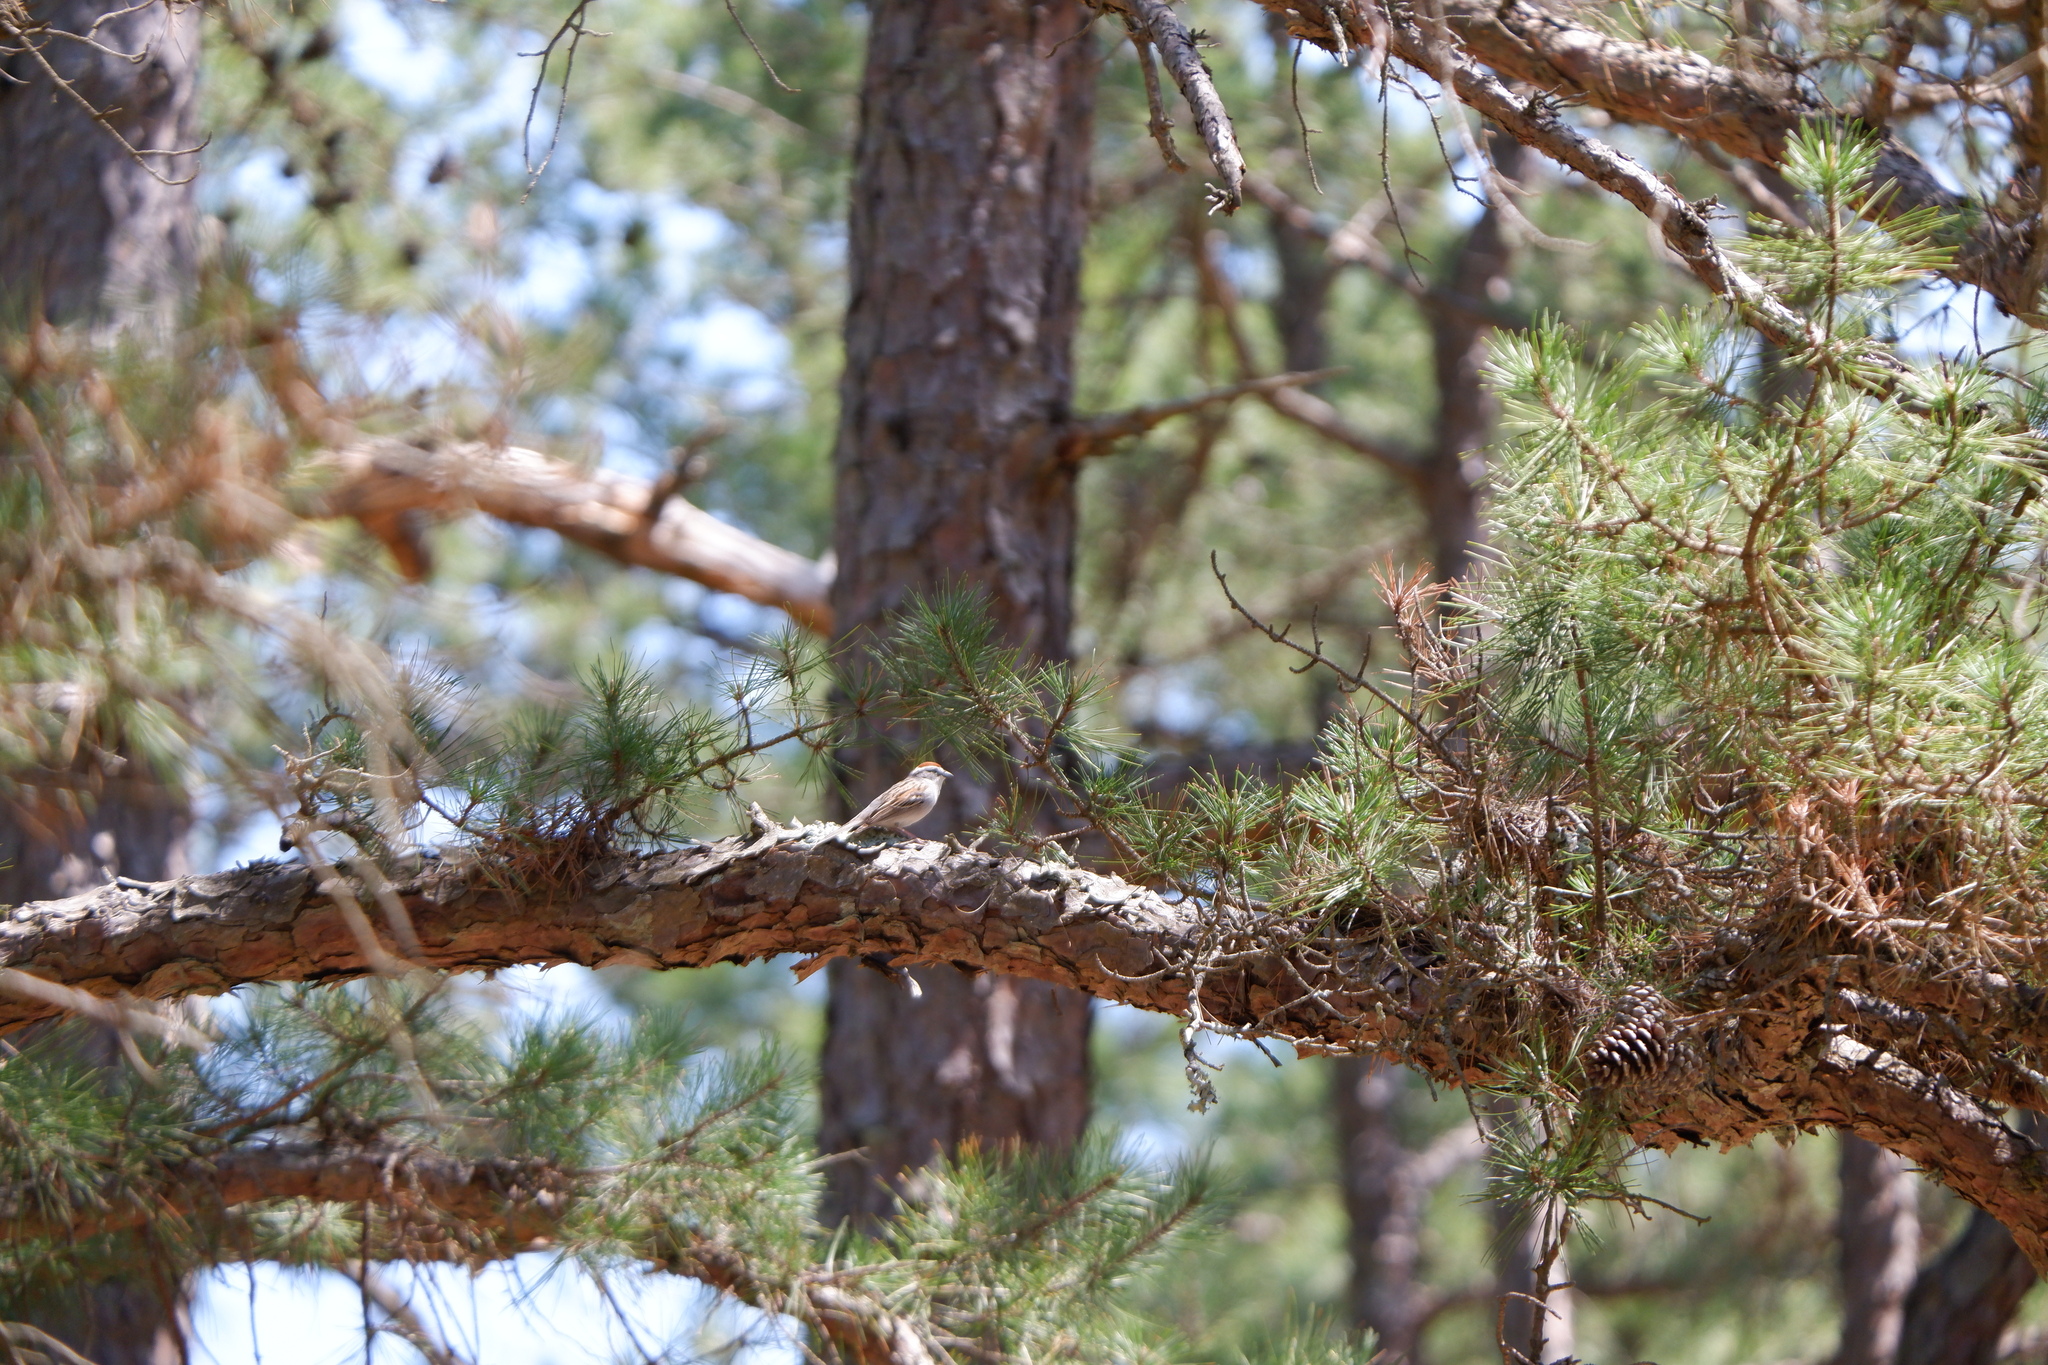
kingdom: Animalia
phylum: Chordata
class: Aves
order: Passeriformes
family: Passerellidae
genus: Spizella
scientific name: Spizella passerina
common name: Chipping sparrow
